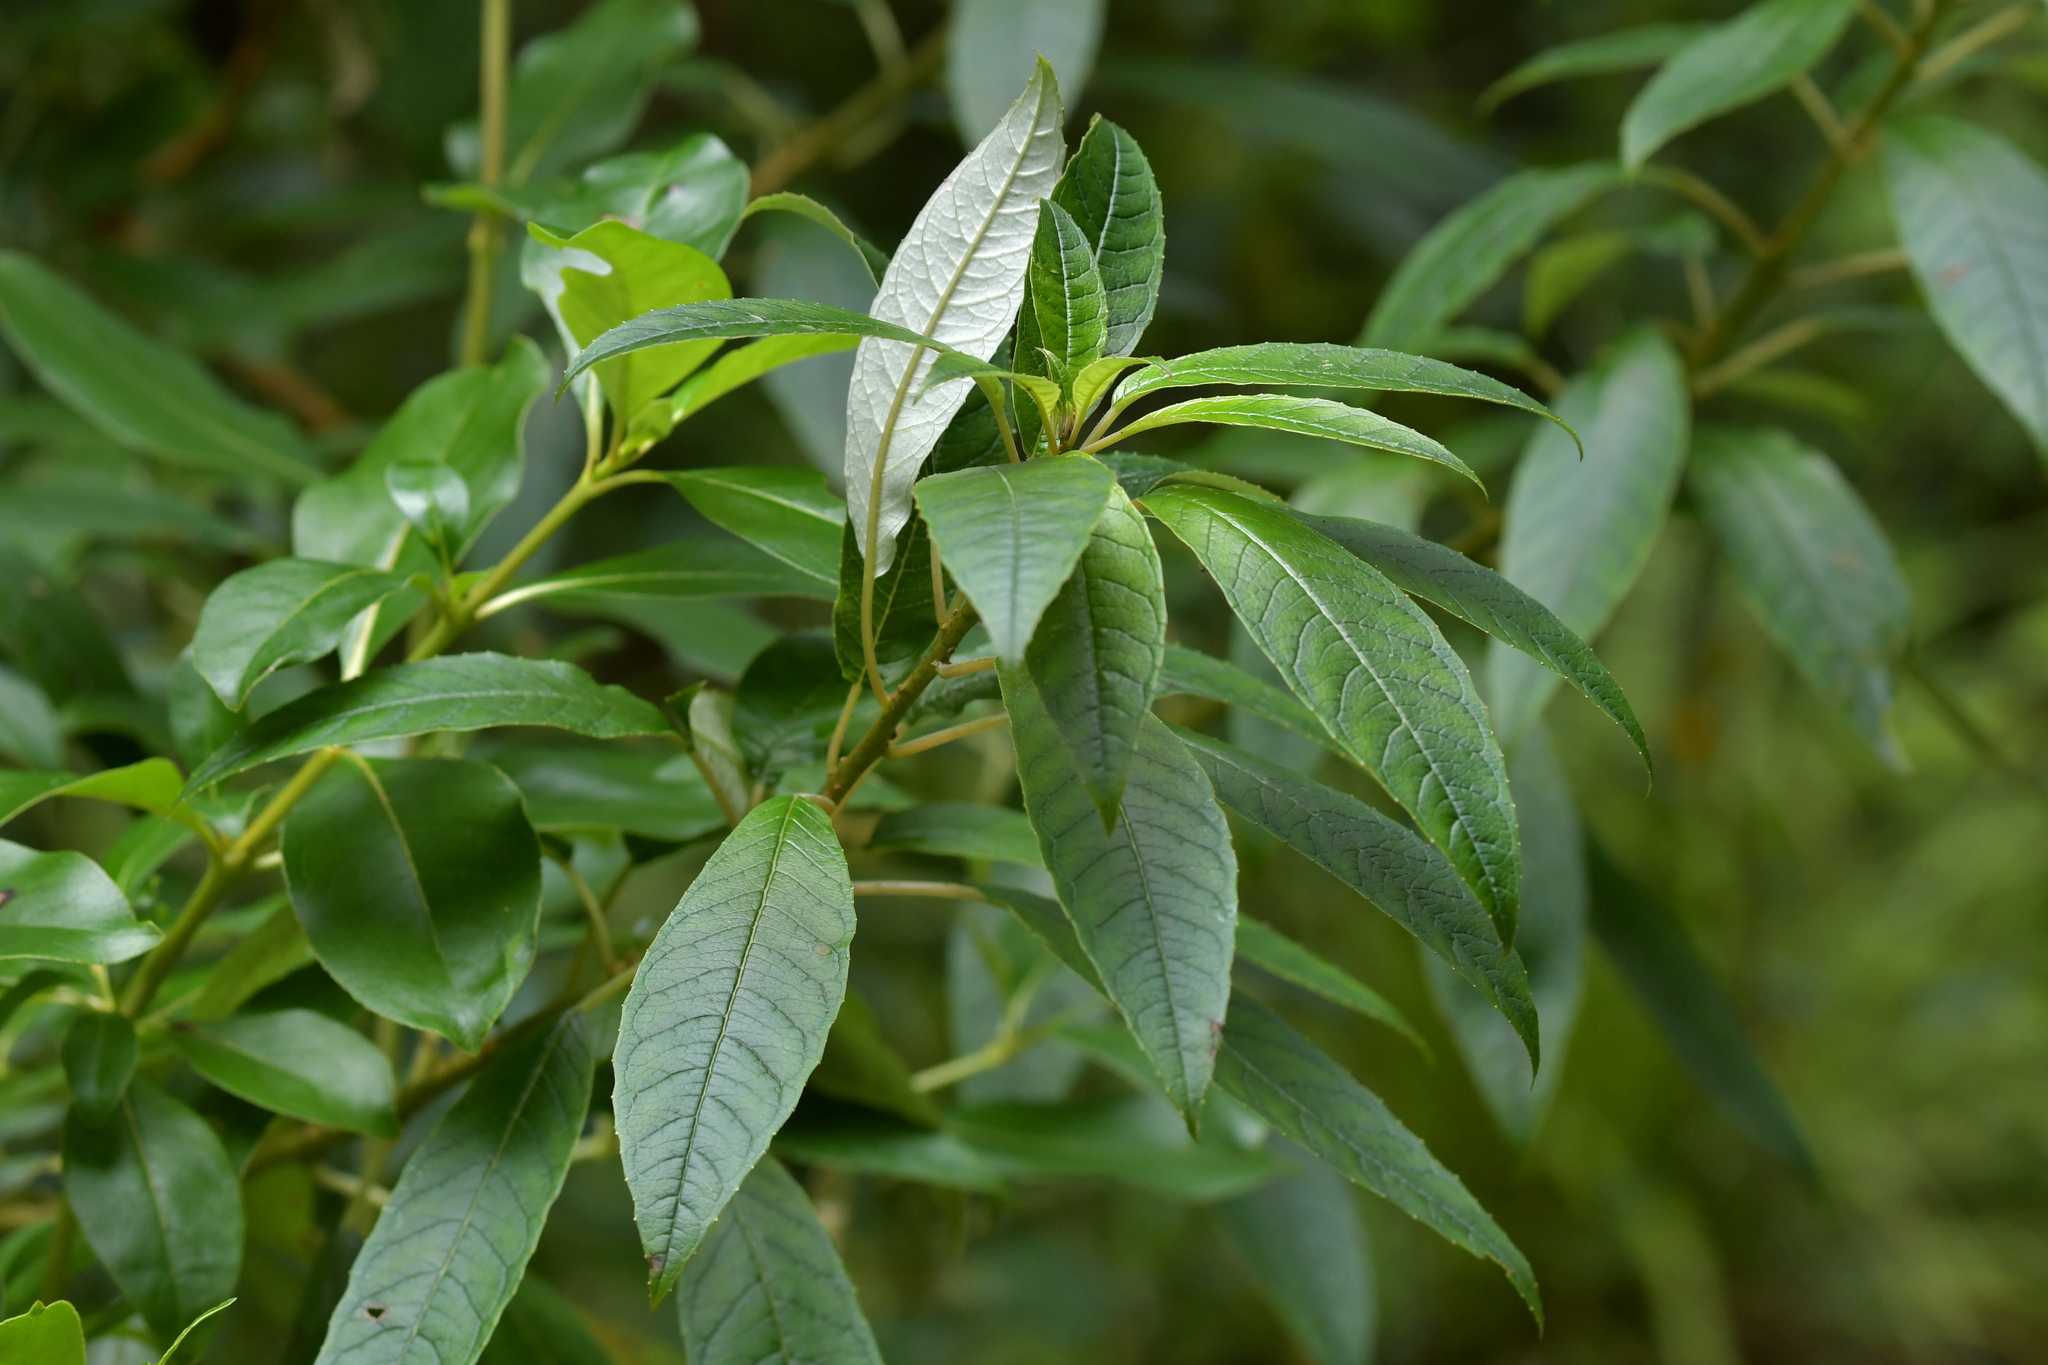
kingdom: Plantae
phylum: Tracheophyta
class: Magnoliopsida
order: Myrtales
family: Onagraceae
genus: Fuchsia
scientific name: Fuchsia excorticata
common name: Tree fuchsia
